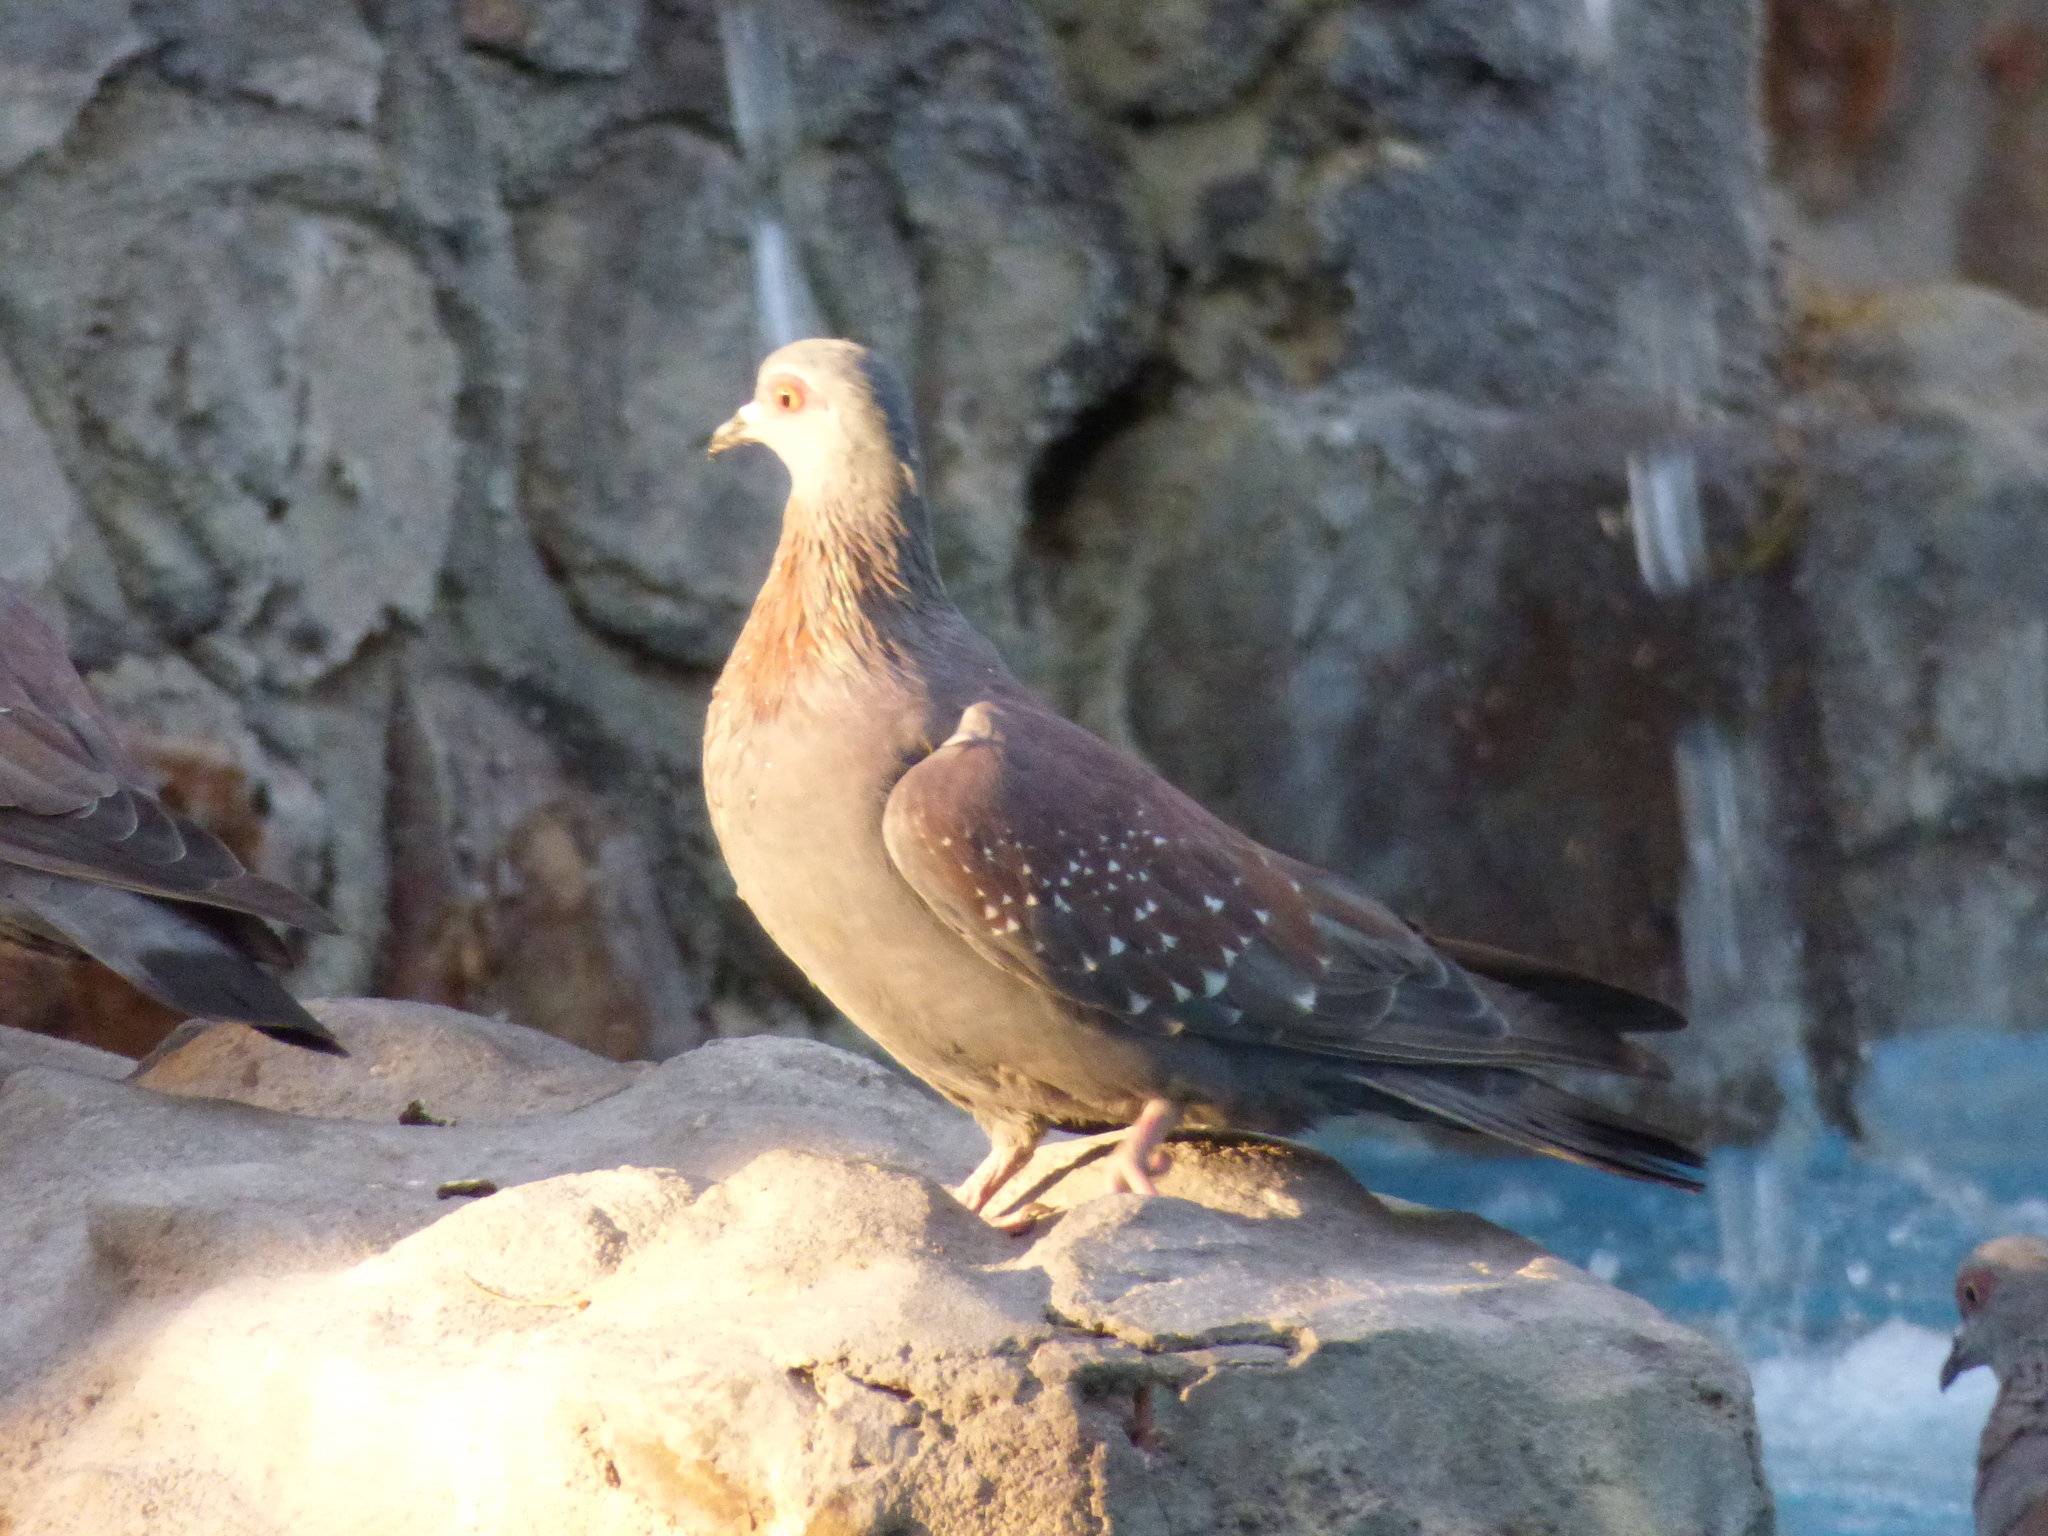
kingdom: Animalia
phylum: Chordata
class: Aves
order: Columbiformes
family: Columbidae
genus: Columba
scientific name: Columba guinea
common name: Speckled pigeon
